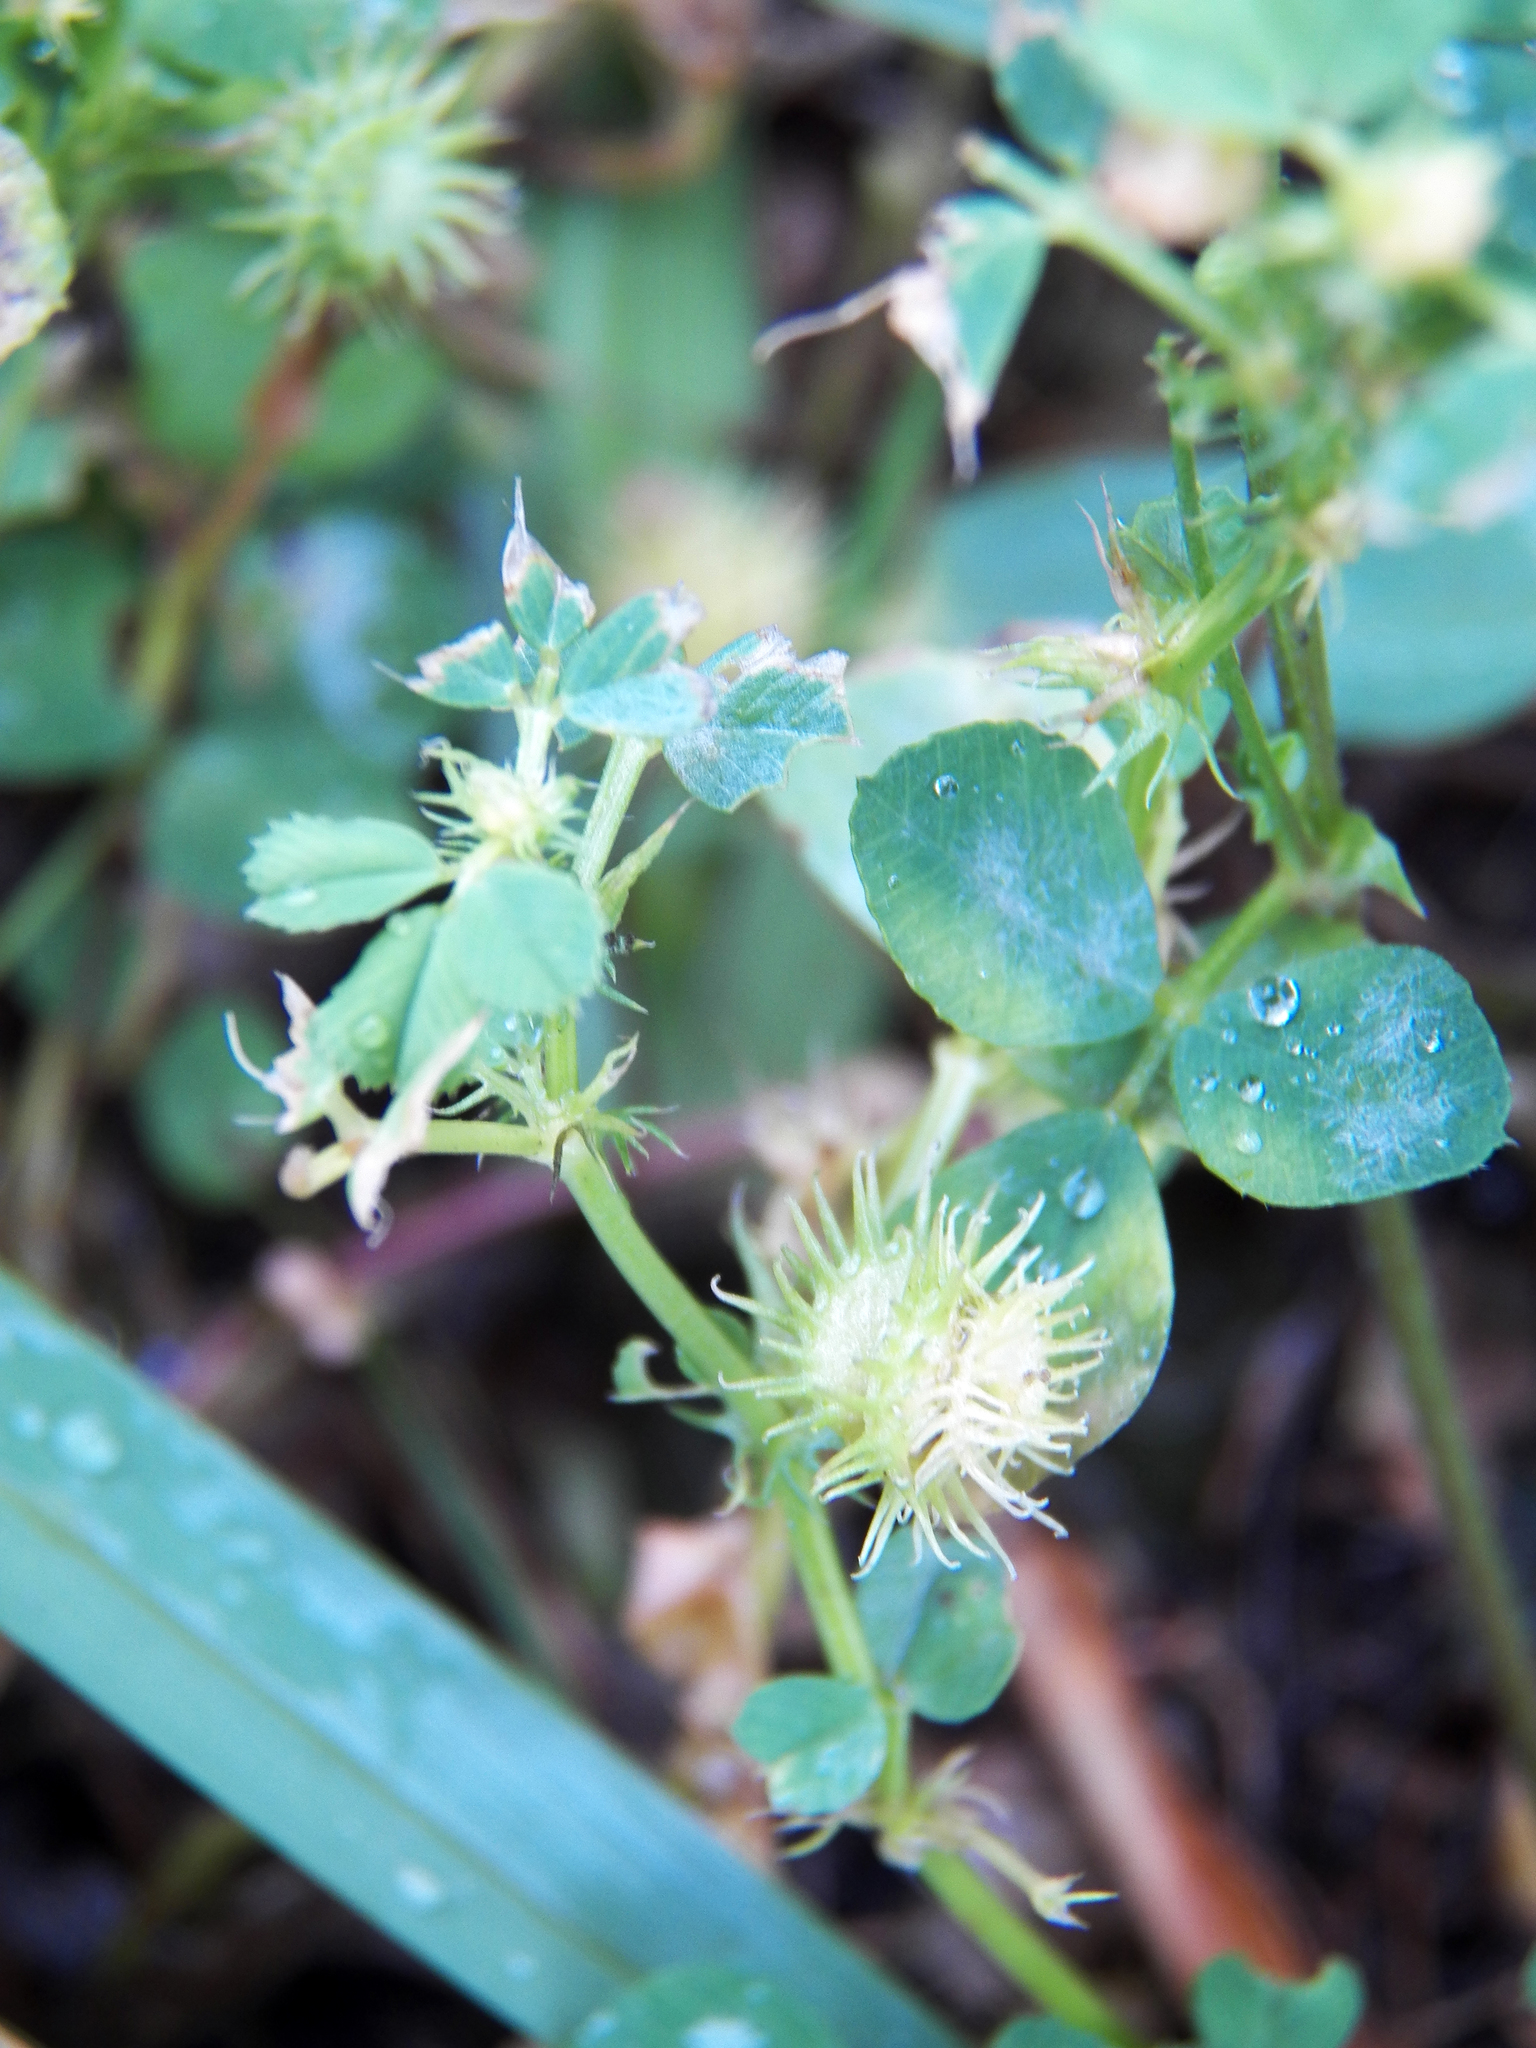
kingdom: Plantae
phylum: Tracheophyta
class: Magnoliopsida
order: Fabales
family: Fabaceae
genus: Medicago
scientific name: Medicago polymorpha
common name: Burclover
